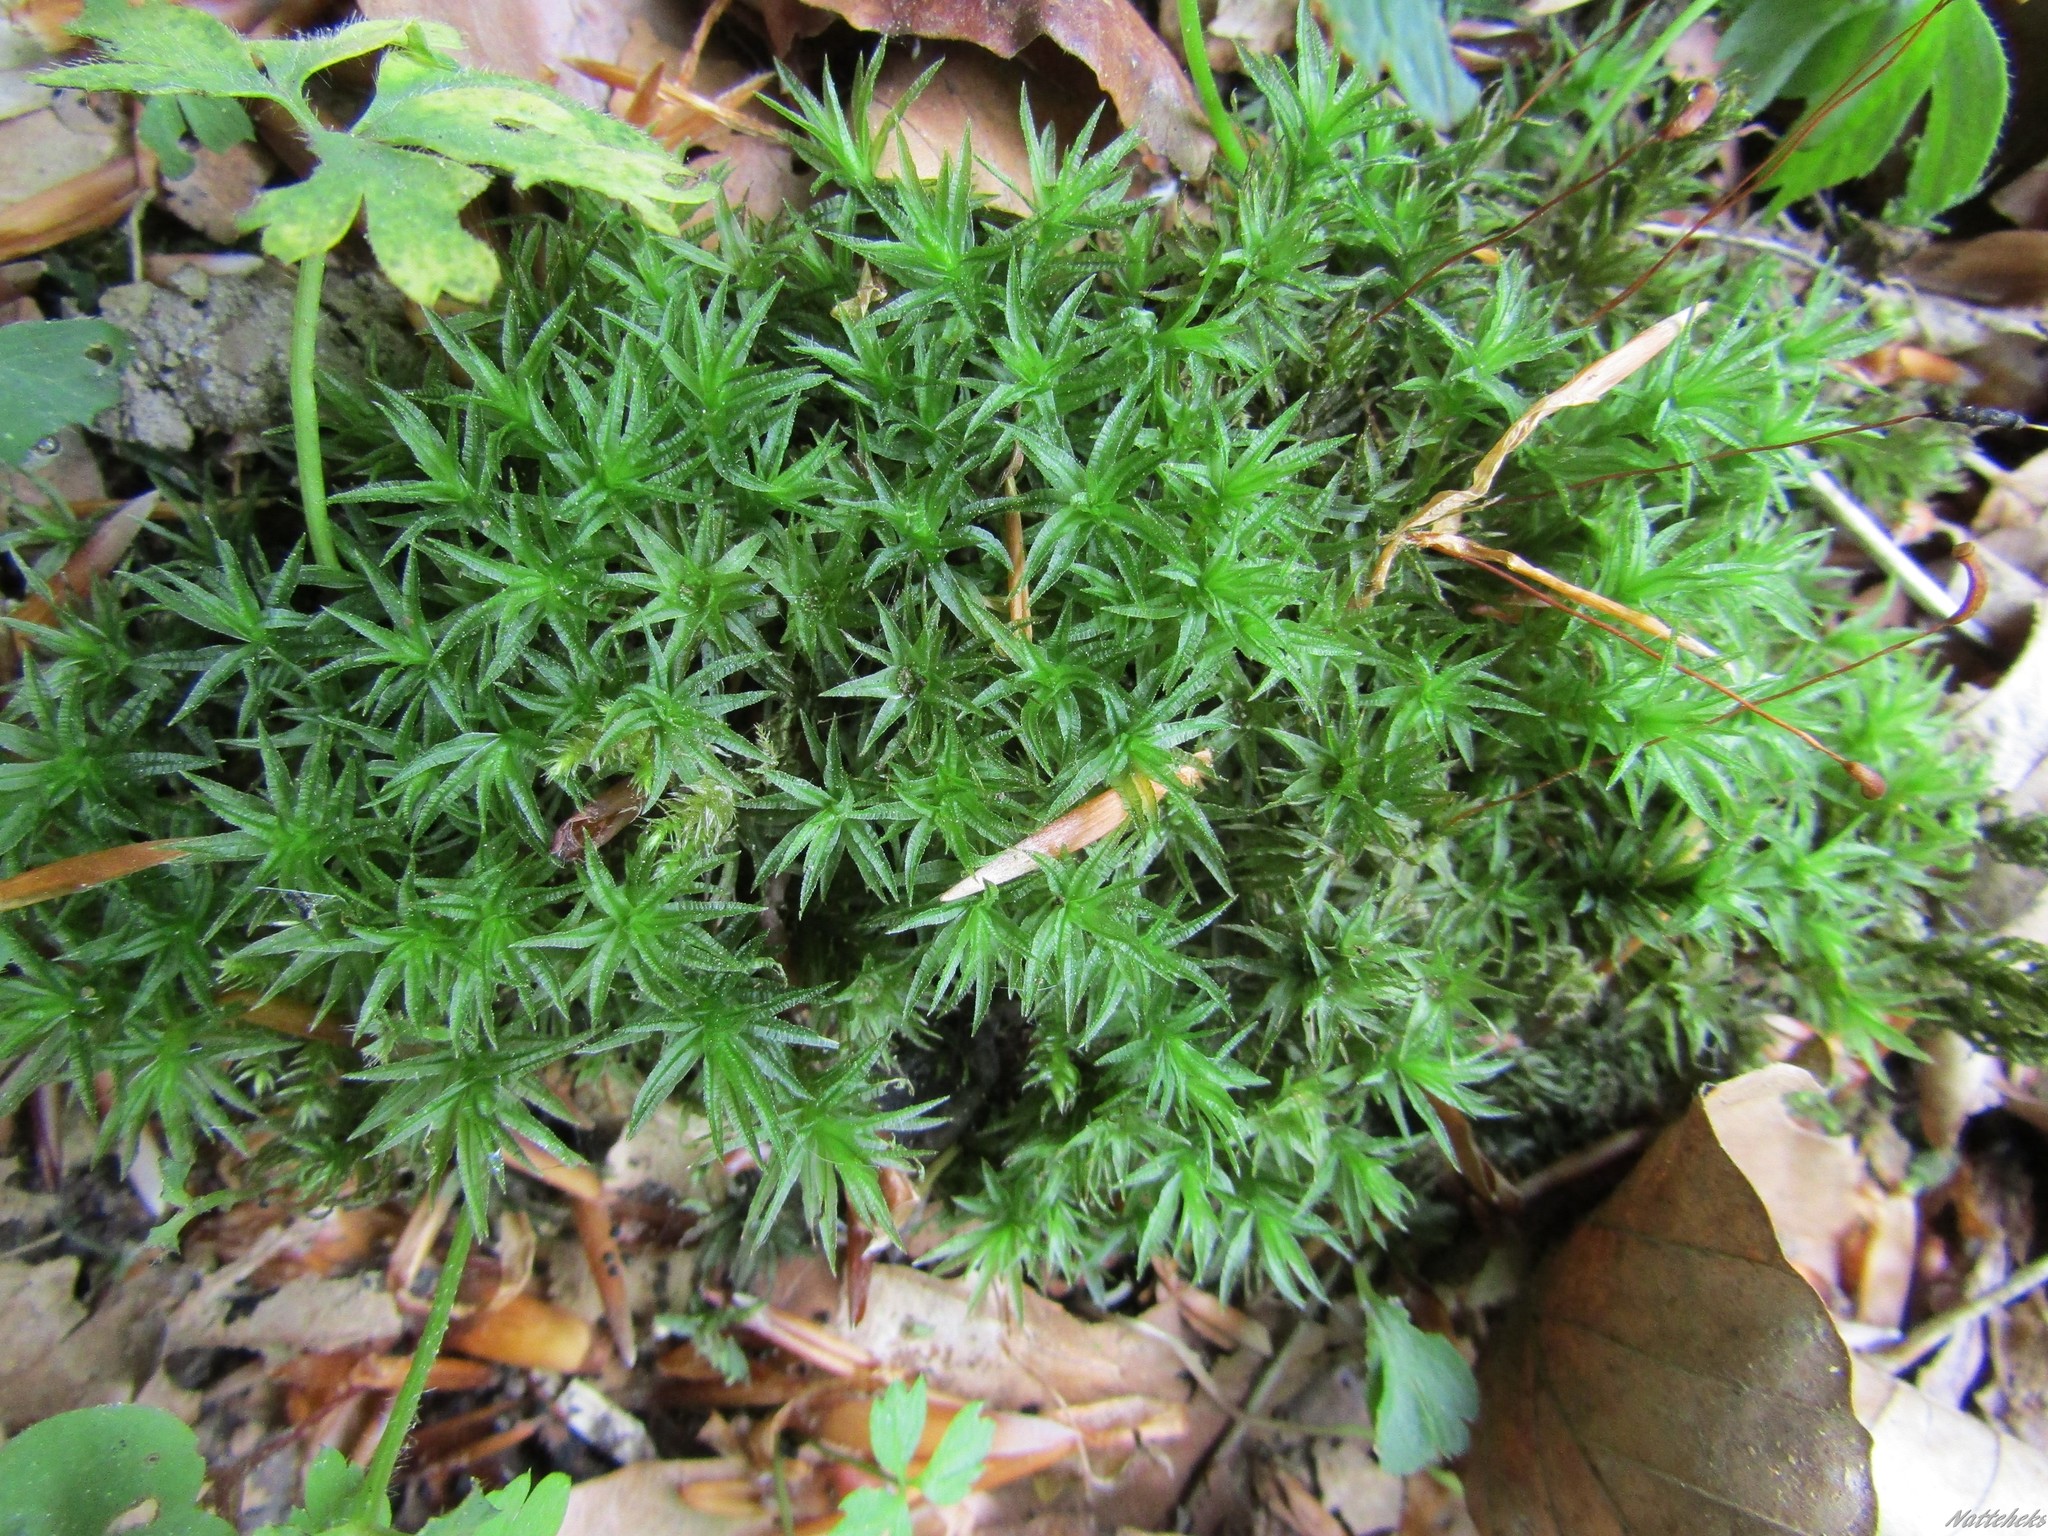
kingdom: Plantae
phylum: Bryophyta
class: Polytrichopsida
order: Polytrichales
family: Polytrichaceae
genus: Atrichum
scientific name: Atrichum undulatum
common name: Common smoothcap
